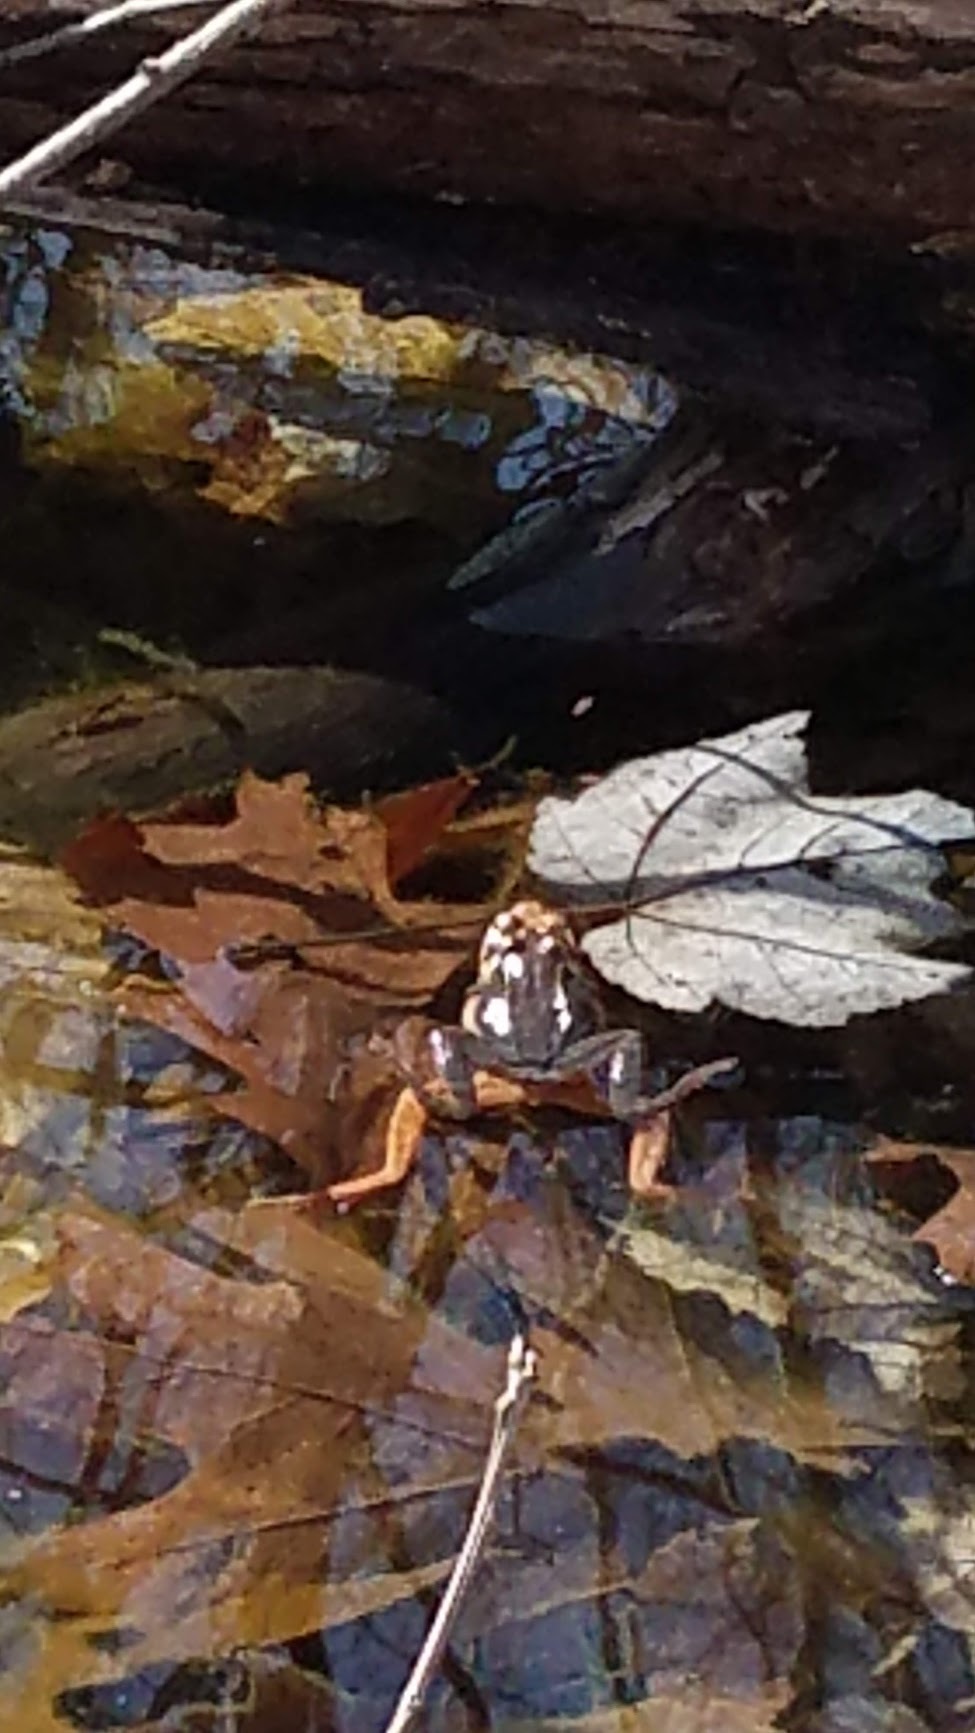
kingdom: Animalia
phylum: Chordata
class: Amphibia
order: Anura
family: Ranidae
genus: Lithobates
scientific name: Lithobates sylvaticus
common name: Wood frog
